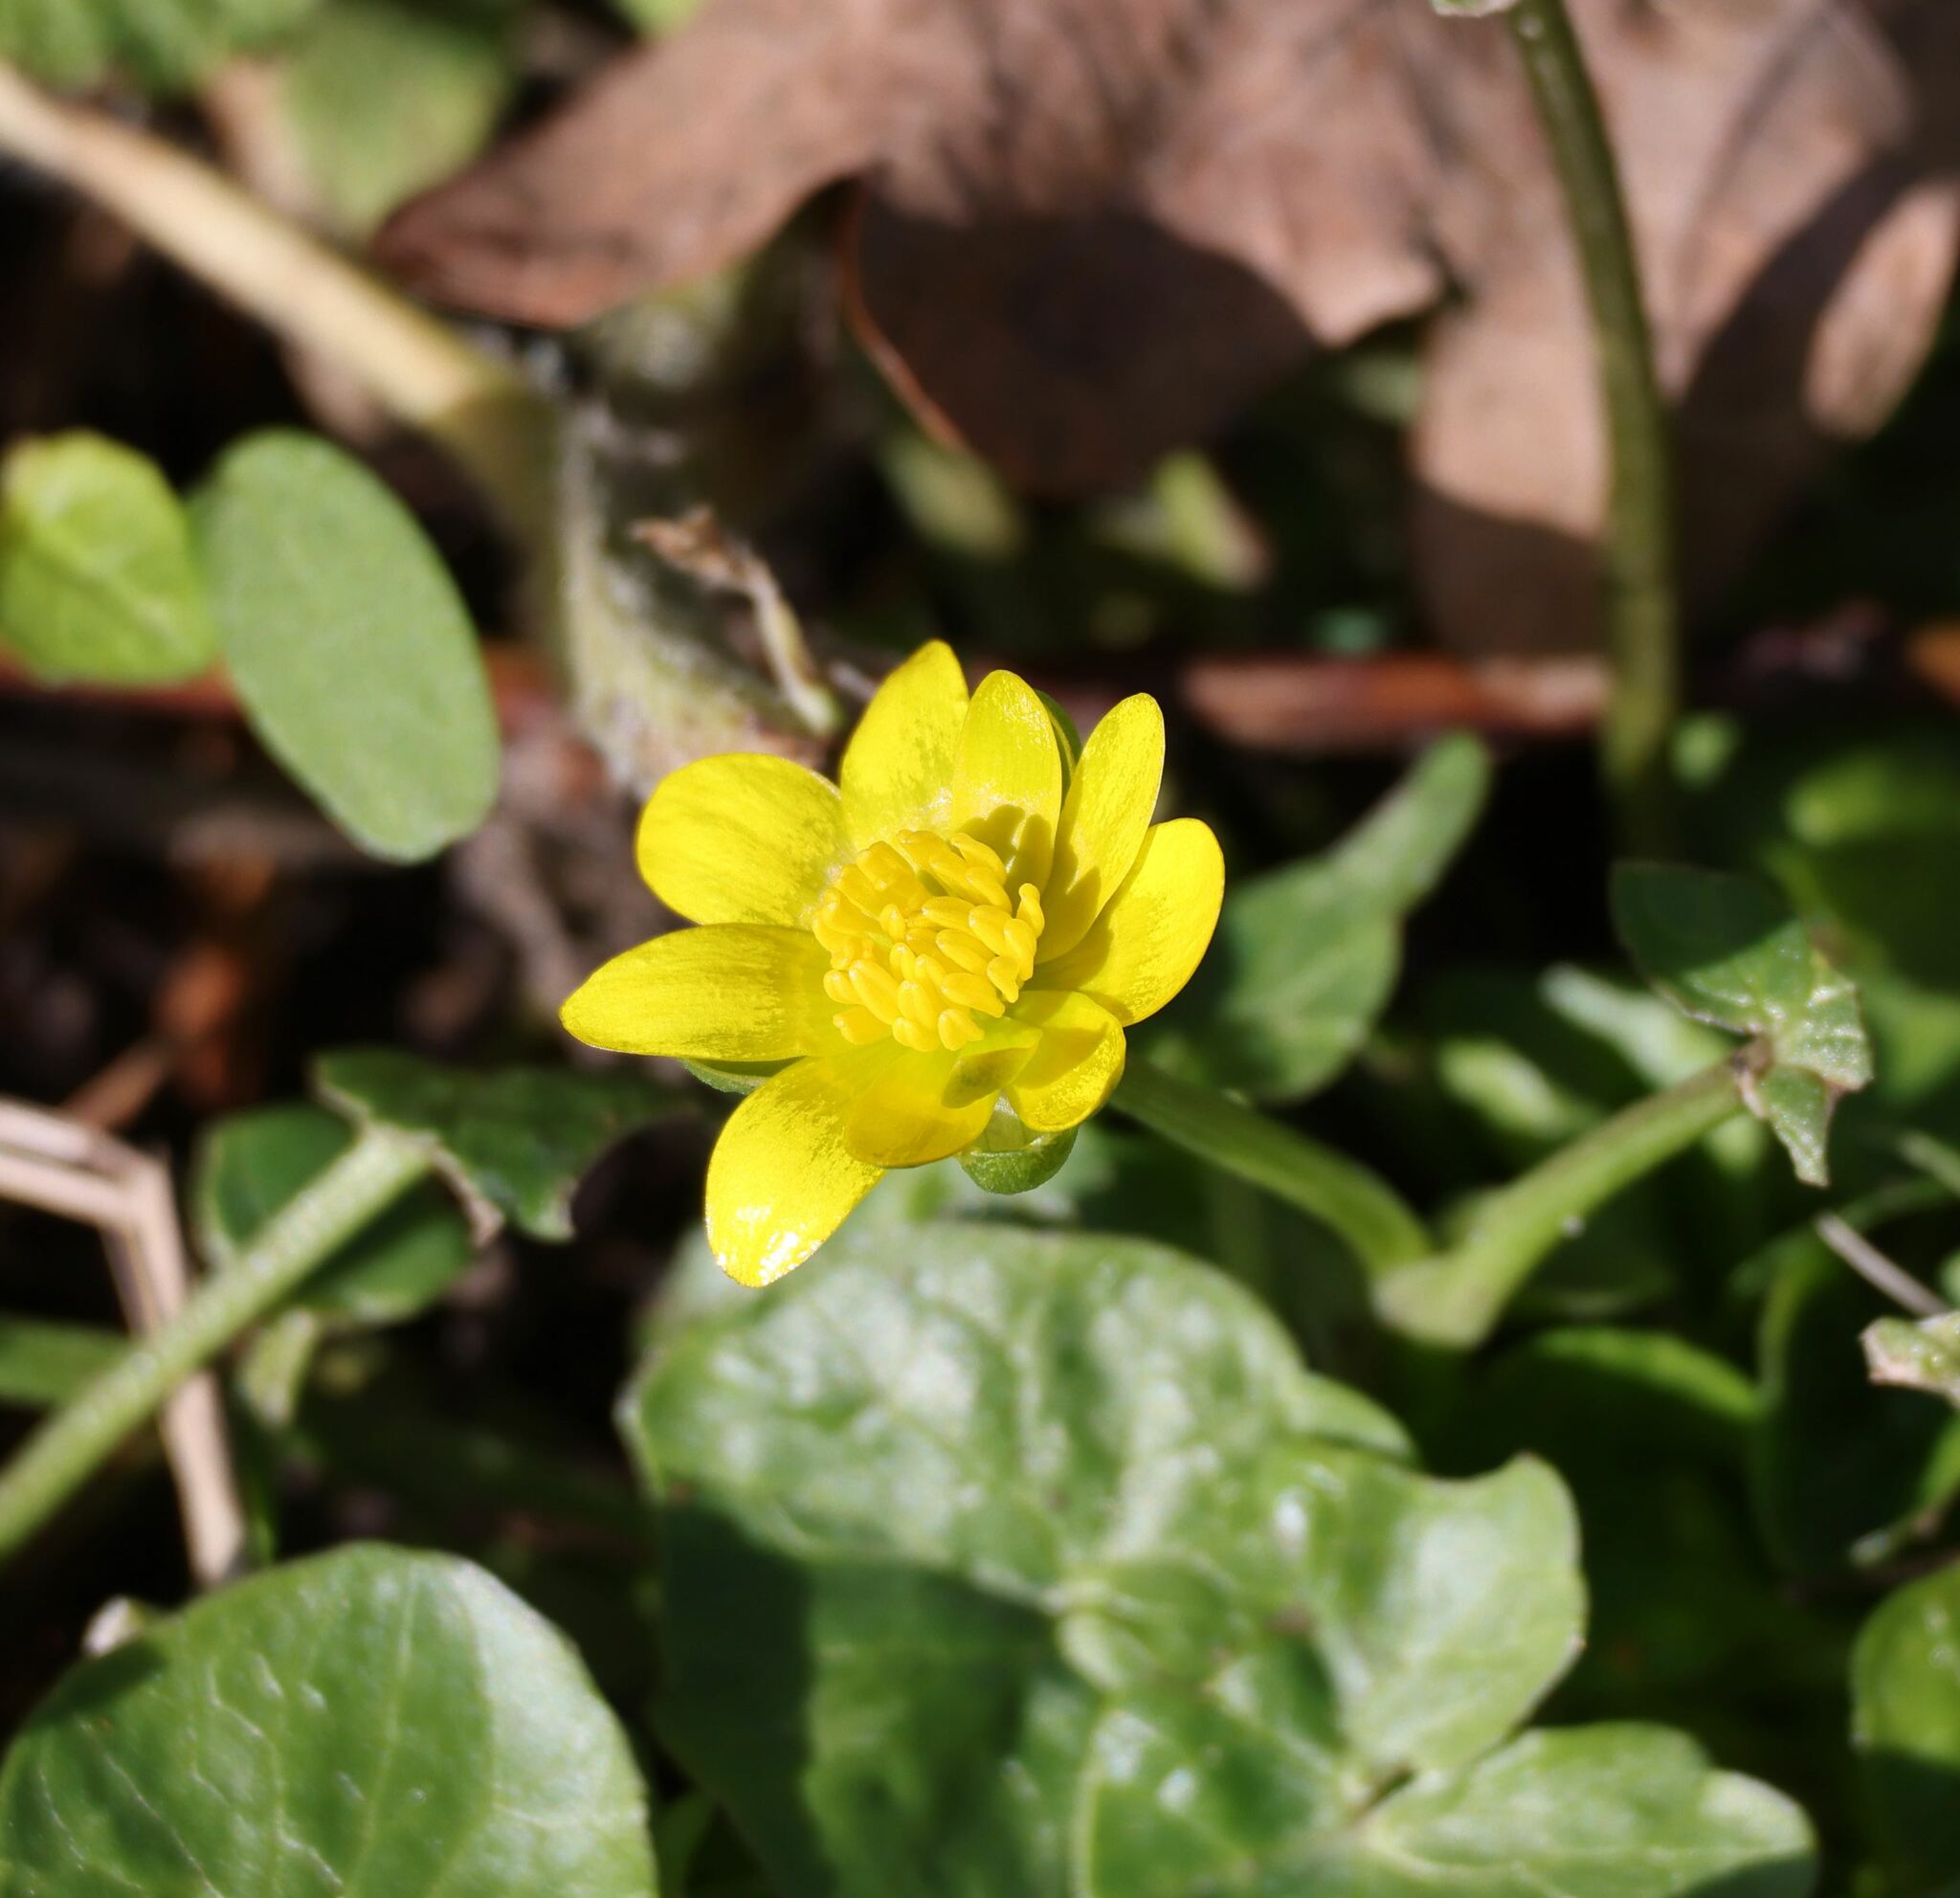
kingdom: Plantae
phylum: Tracheophyta
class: Magnoliopsida
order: Ranunculales
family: Ranunculaceae
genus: Ficaria
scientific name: Ficaria verna
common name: Lesser celandine
